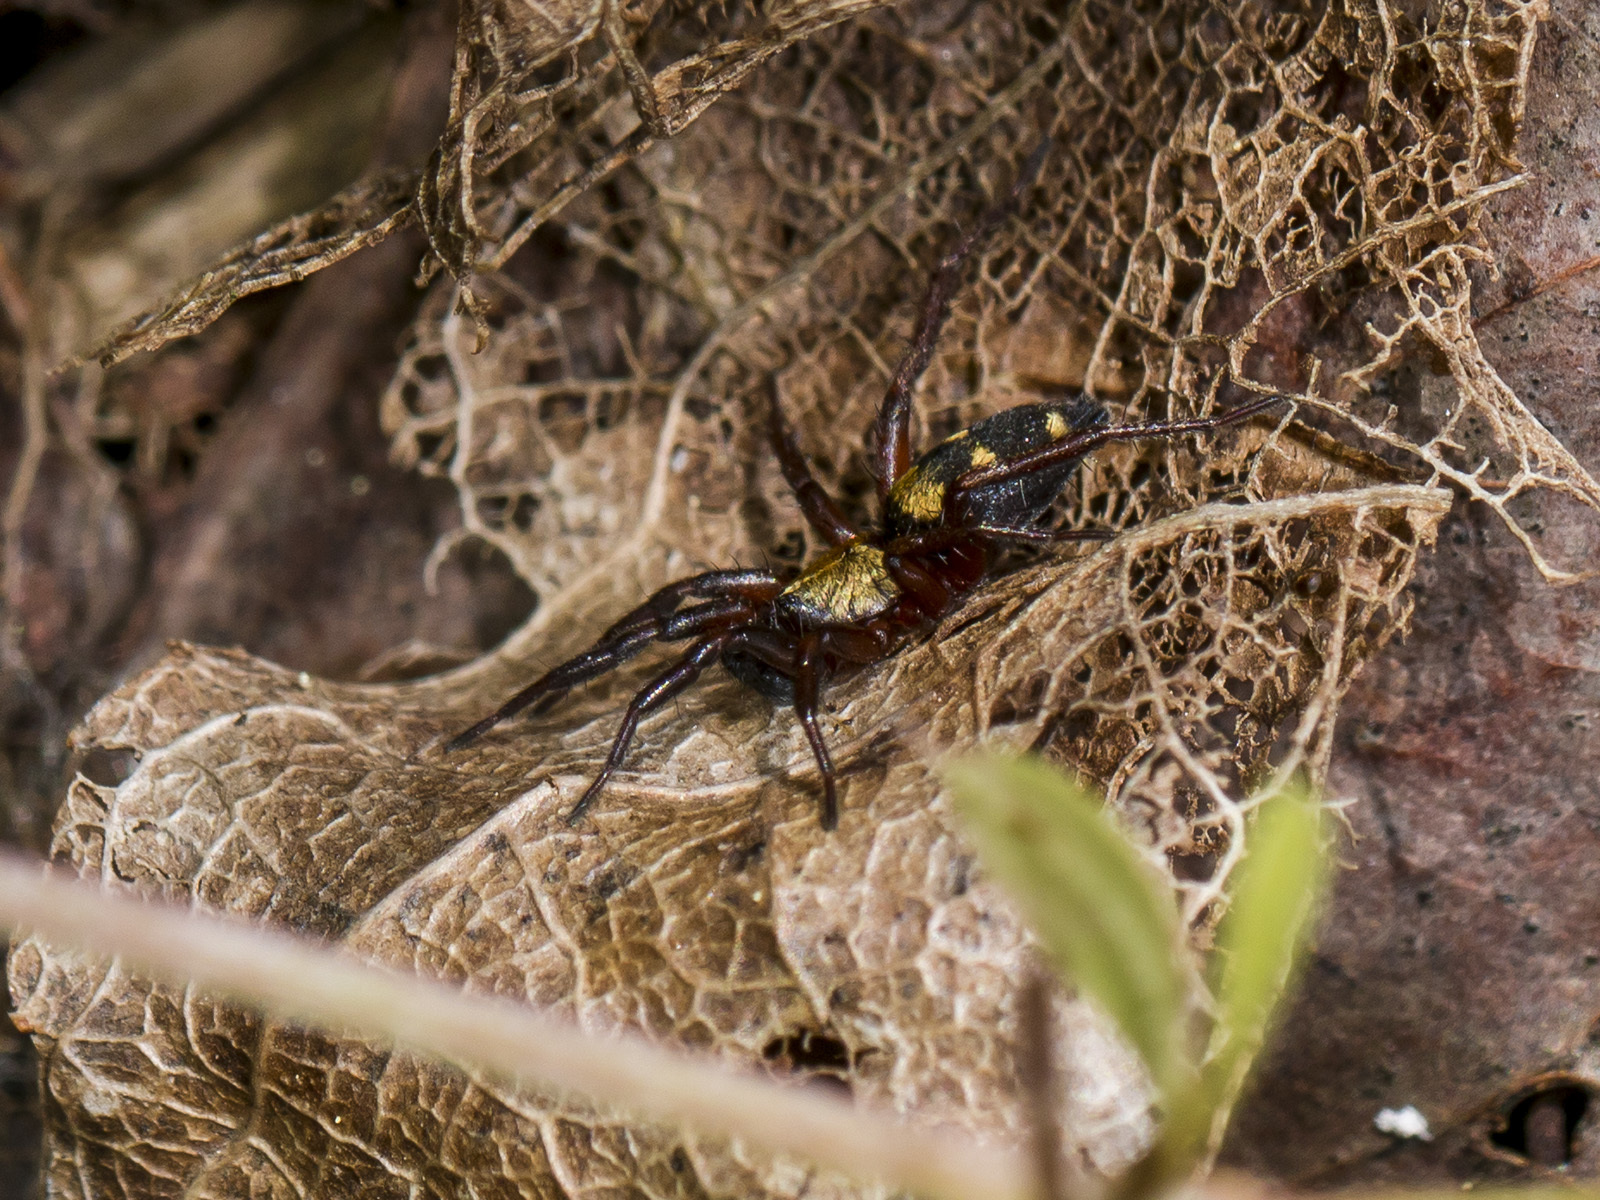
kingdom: Animalia
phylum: Arthropoda
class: Arachnida
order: Araneae
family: Gnaphosidae
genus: Callilepis
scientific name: Callilepis nocturna
